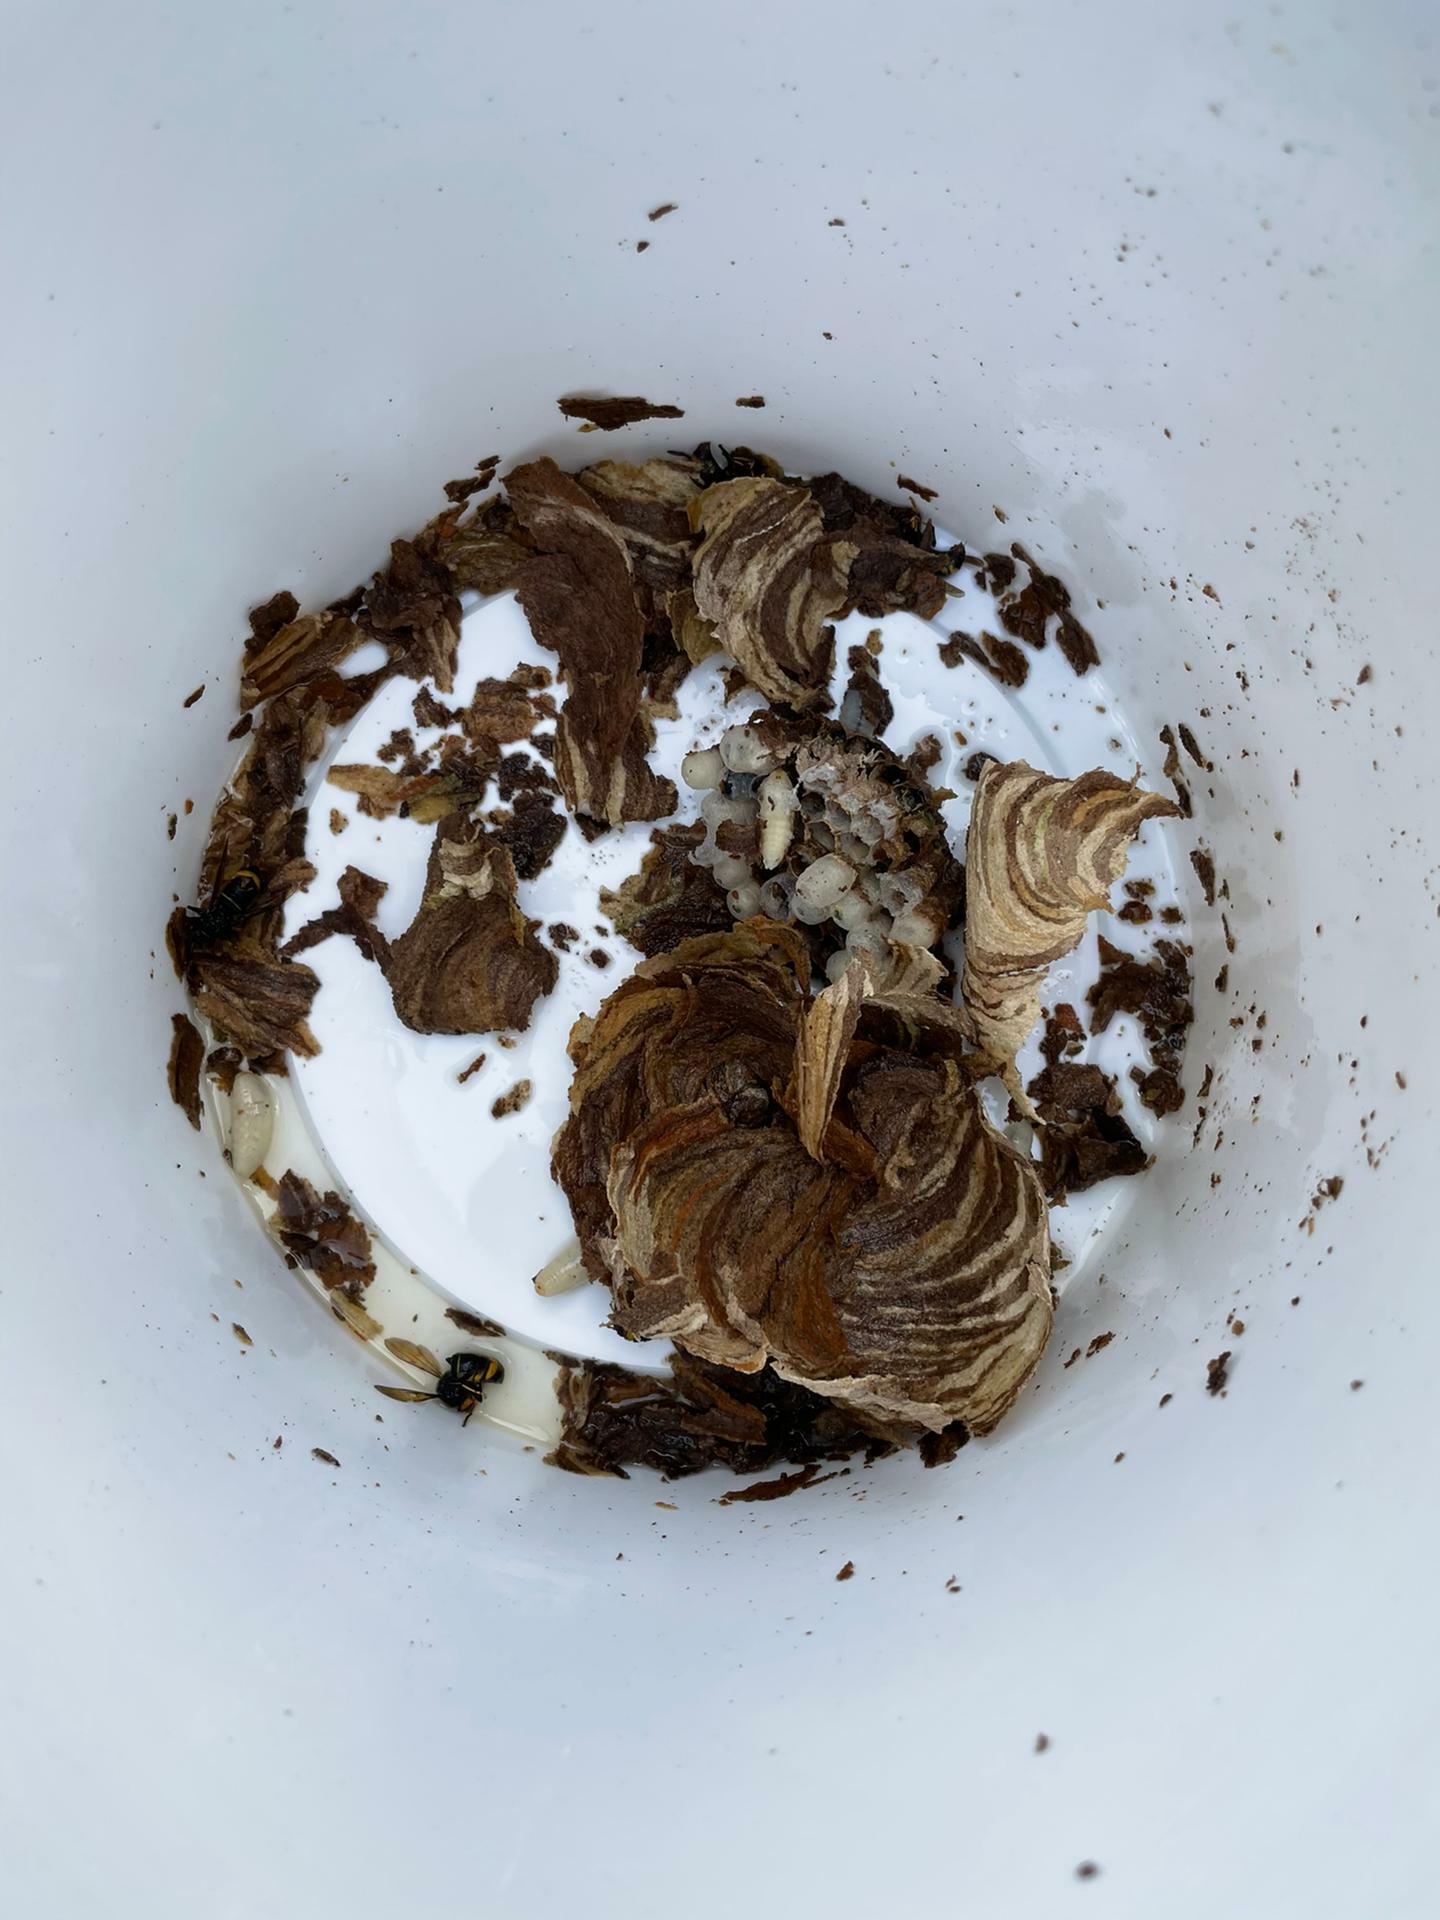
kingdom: Animalia
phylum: Arthropoda
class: Insecta
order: Hymenoptera
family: Vespidae
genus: Vespa
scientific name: Vespa velutina
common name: Asian hornet
